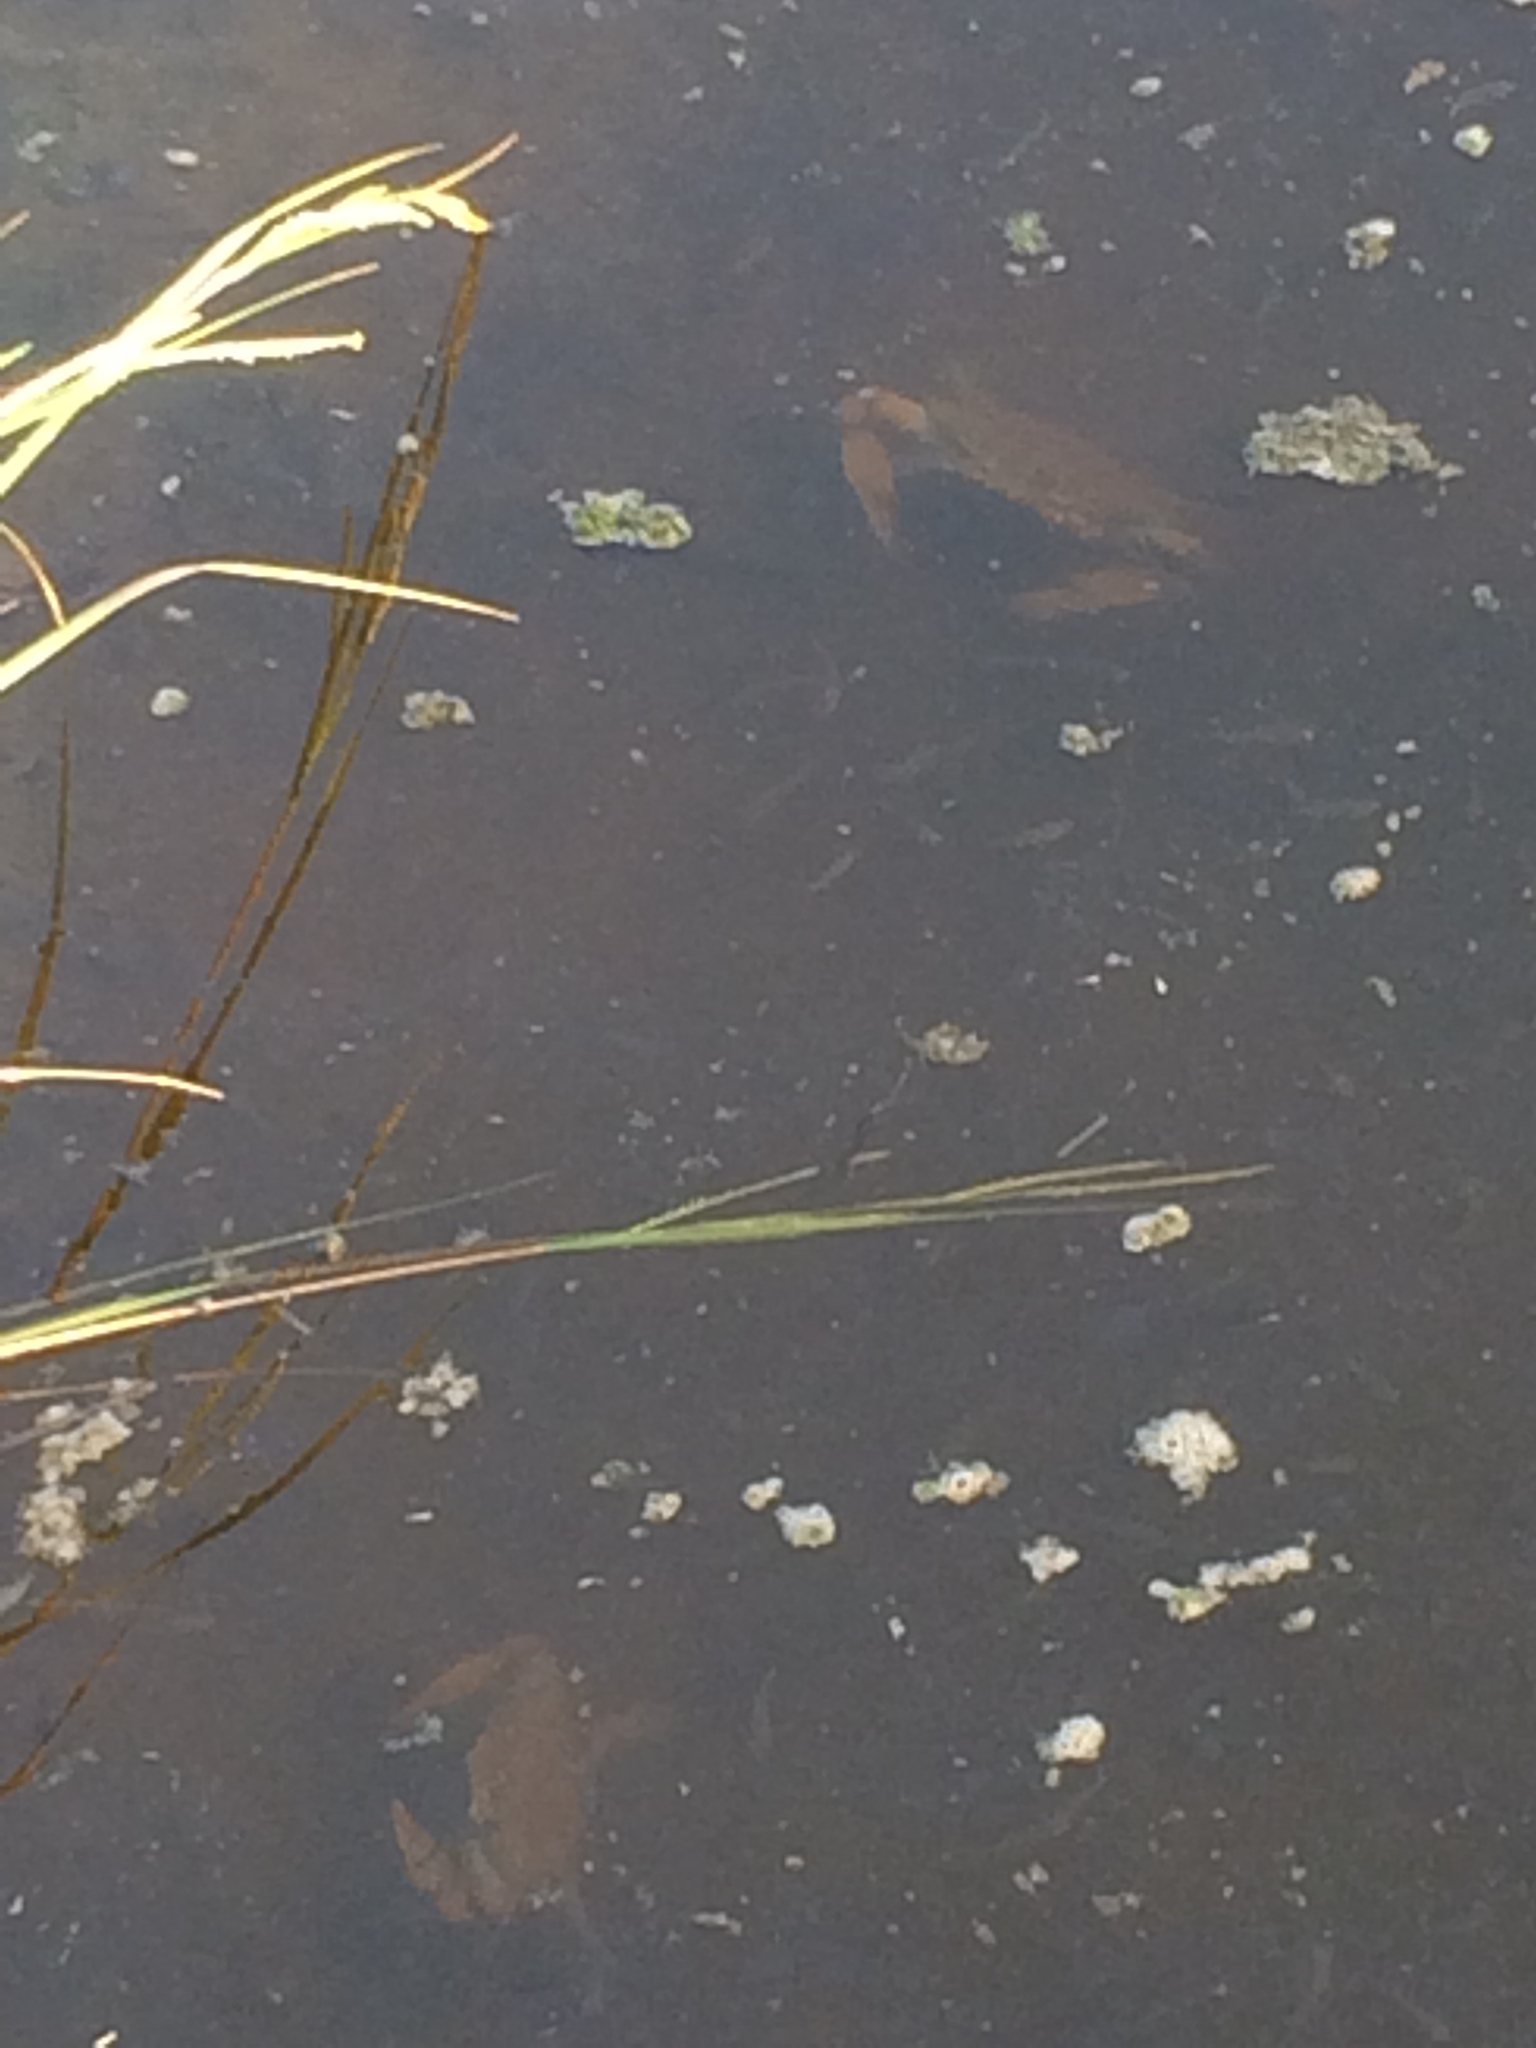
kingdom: Animalia
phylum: Arthropoda
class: Malacostraca
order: Decapoda
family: Portunidae
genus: Callinectes
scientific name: Callinectes sapidus
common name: Blue crab
